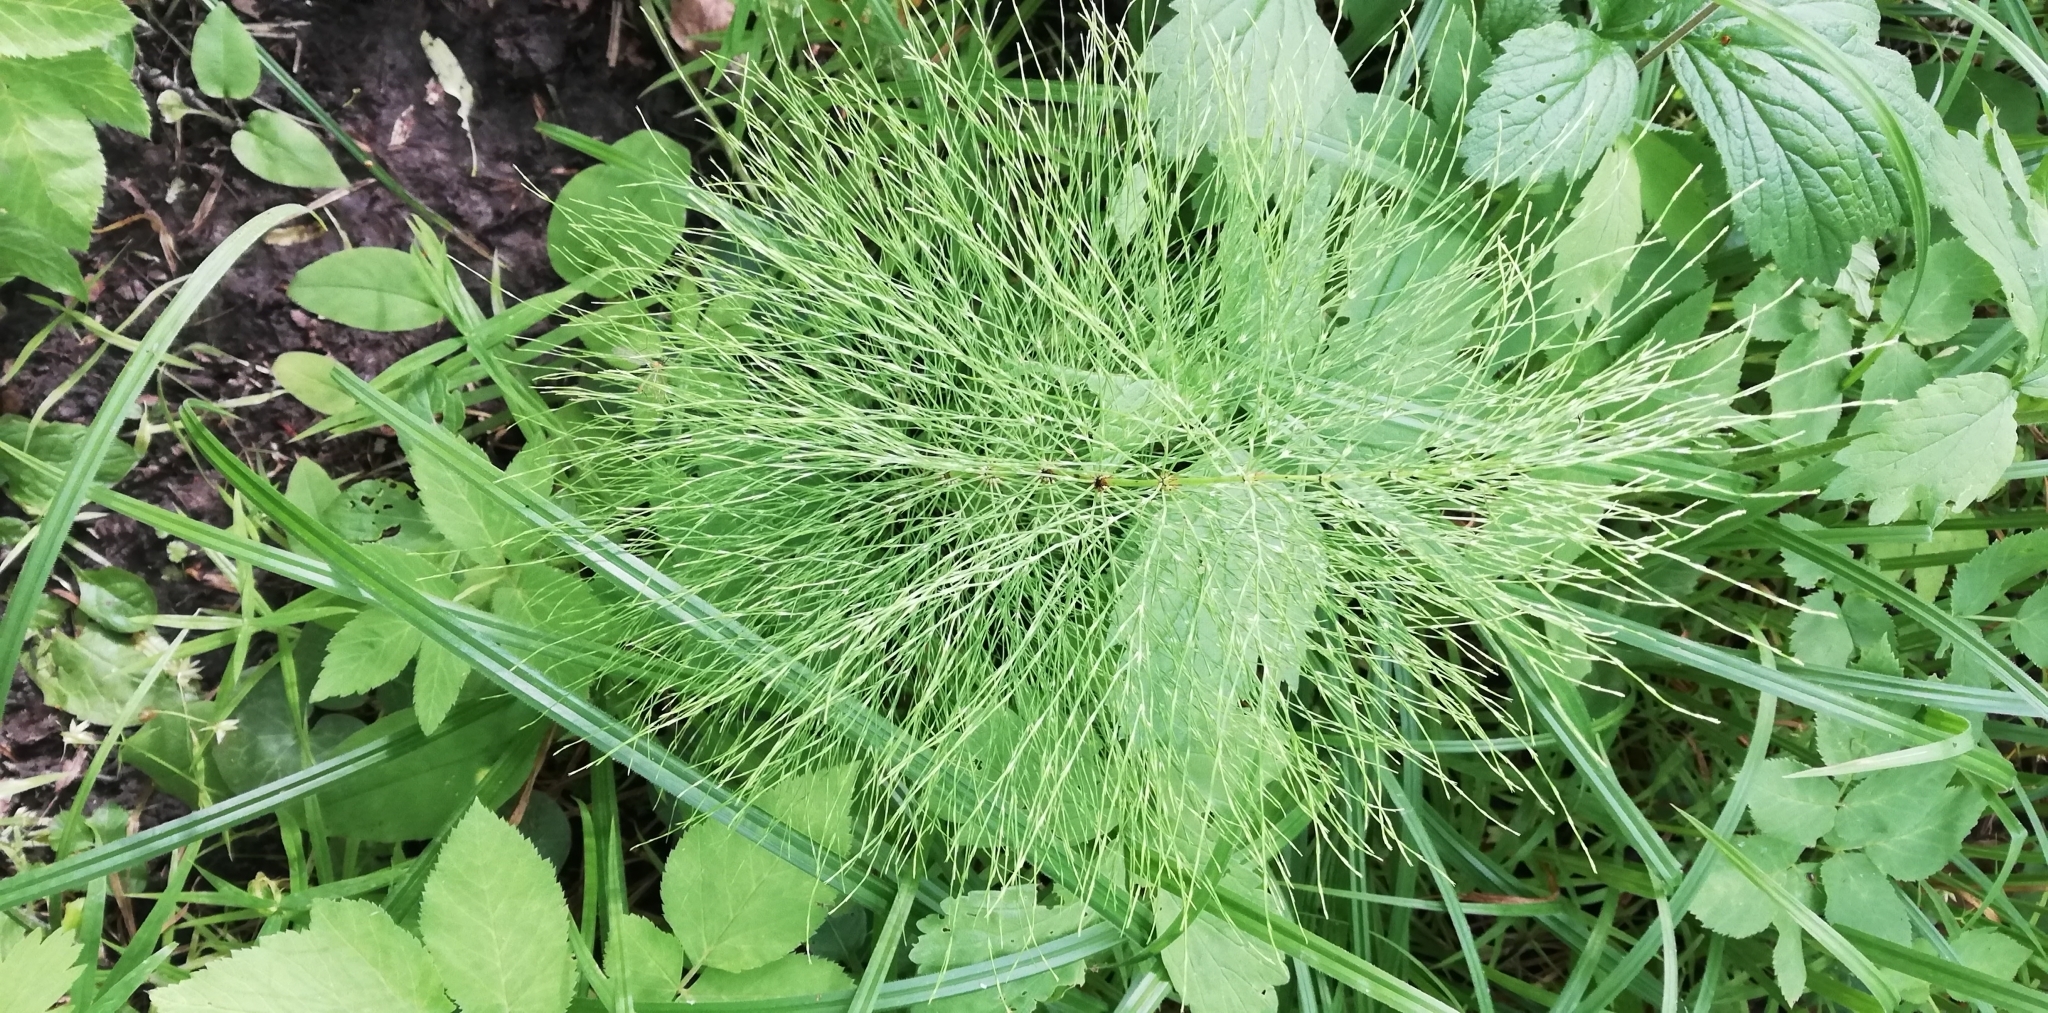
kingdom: Plantae
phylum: Tracheophyta
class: Polypodiopsida
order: Equisetales
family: Equisetaceae
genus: Equisetum
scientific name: Equisetum sylvaticum
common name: Wood horsetail
